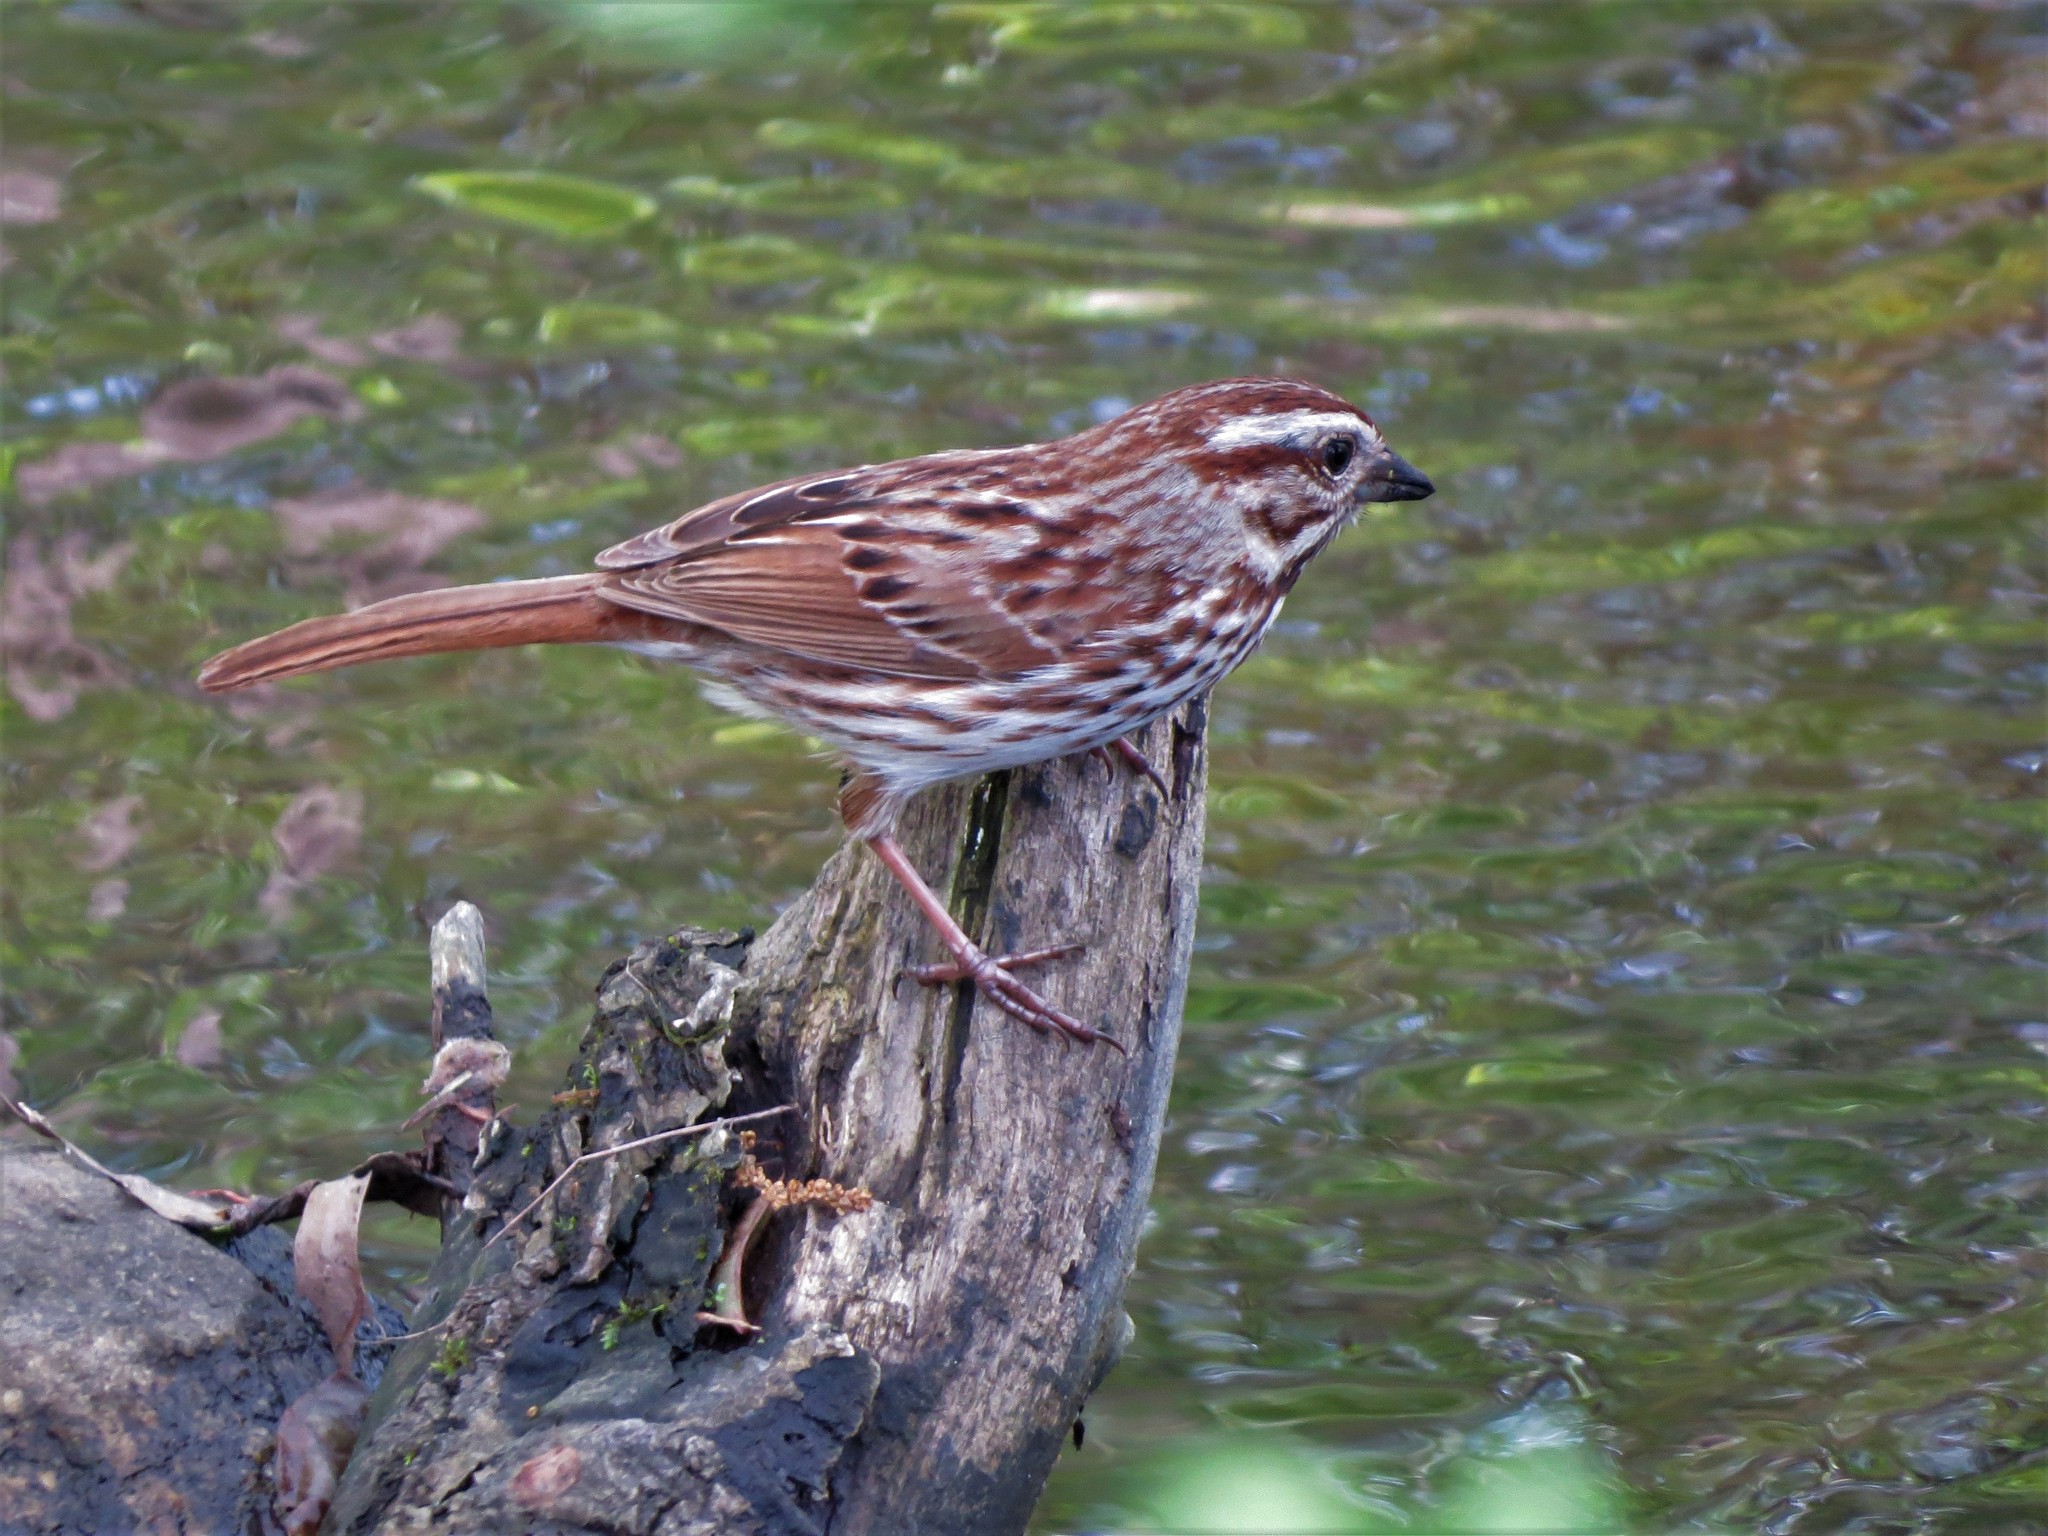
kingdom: Animalia
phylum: Chordata
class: Aves
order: Passeriformes
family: Passerellidae
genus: Melospiza
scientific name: Melospiza melodia
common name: Song sparrow
